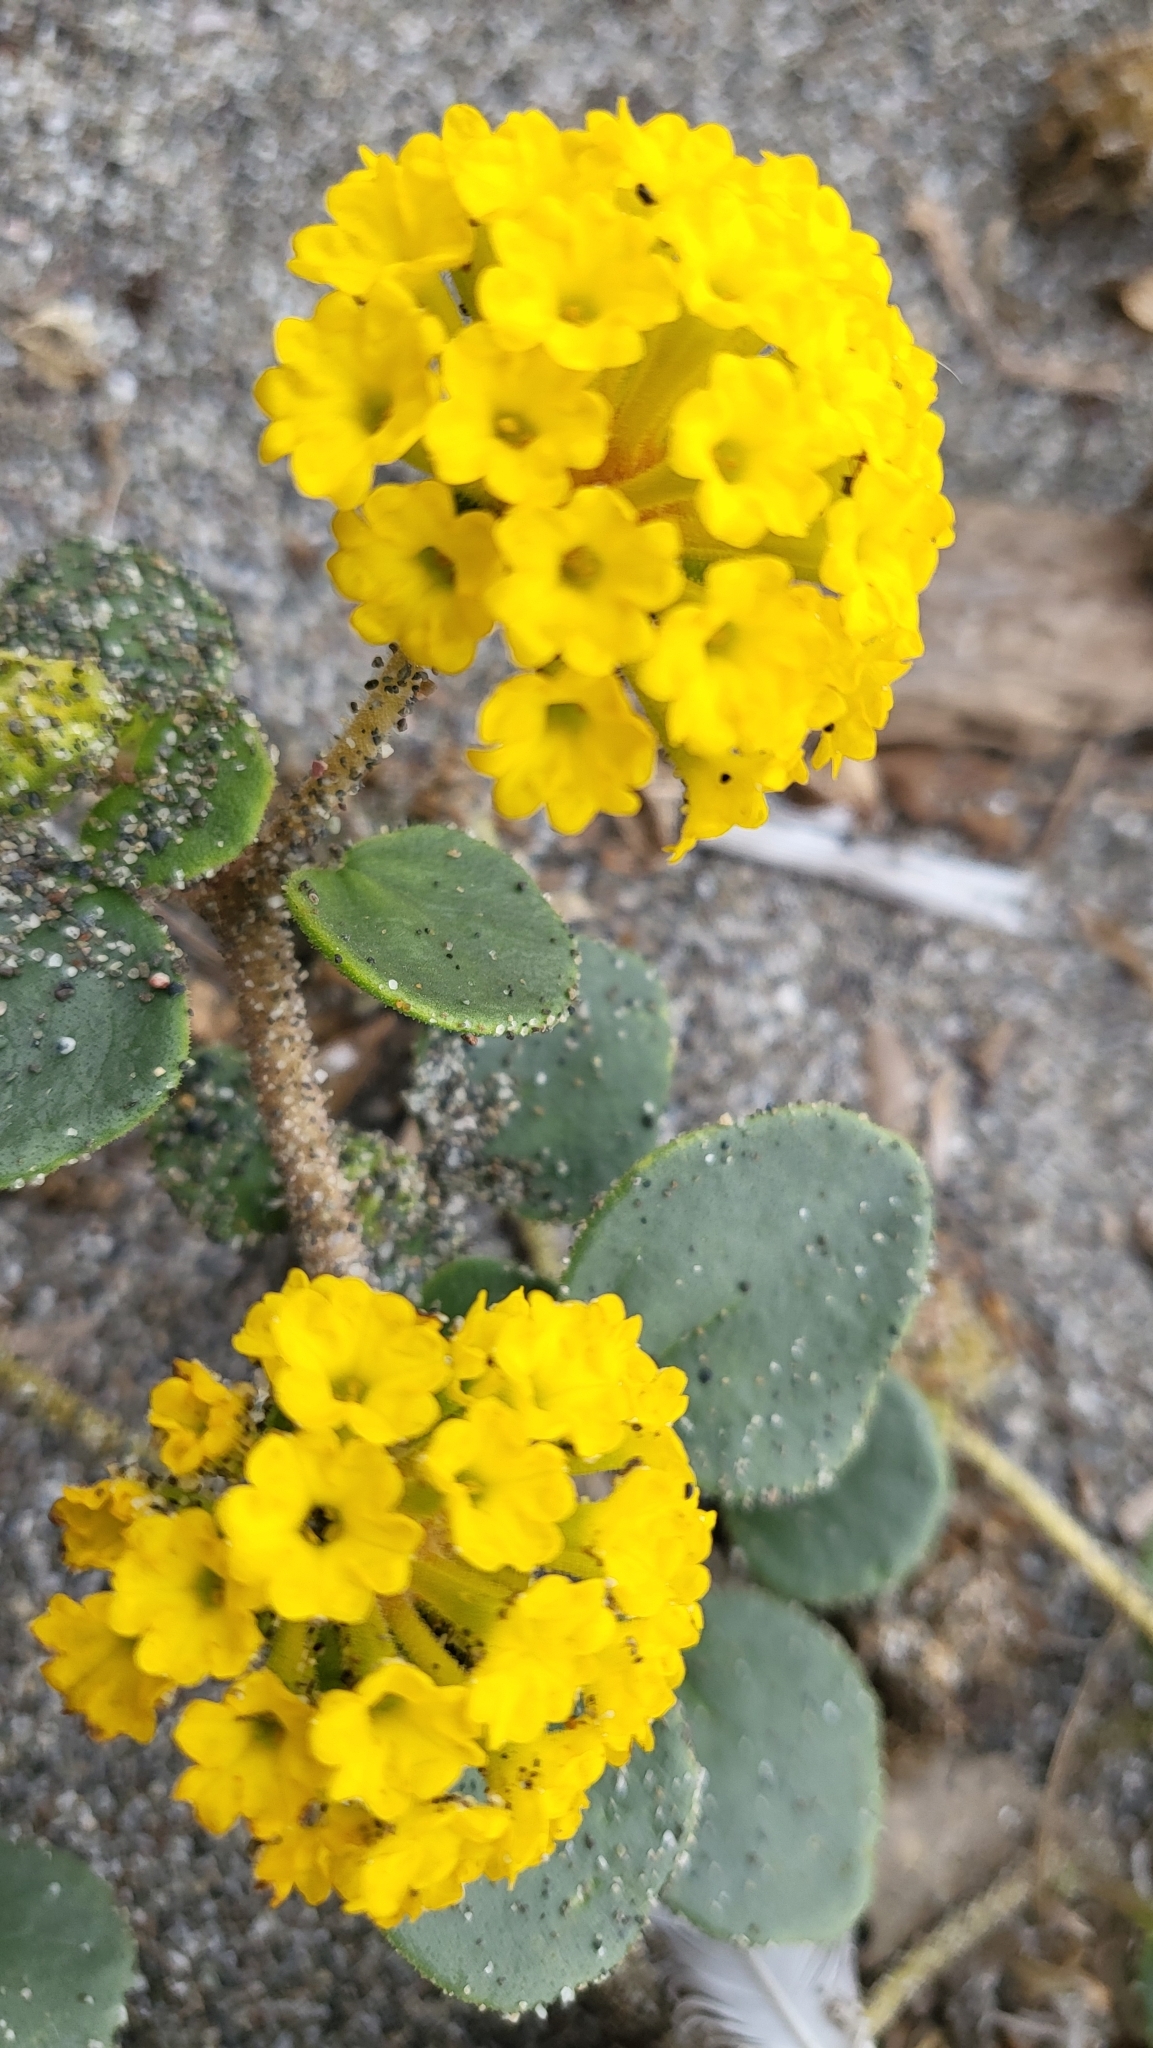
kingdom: Plantae
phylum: Tracheophyta
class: Magnoliopsida
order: Caryophyllales
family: Nyctaginaceae
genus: Abronia
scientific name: Abronia latifolia
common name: Yellow sand-verbena
